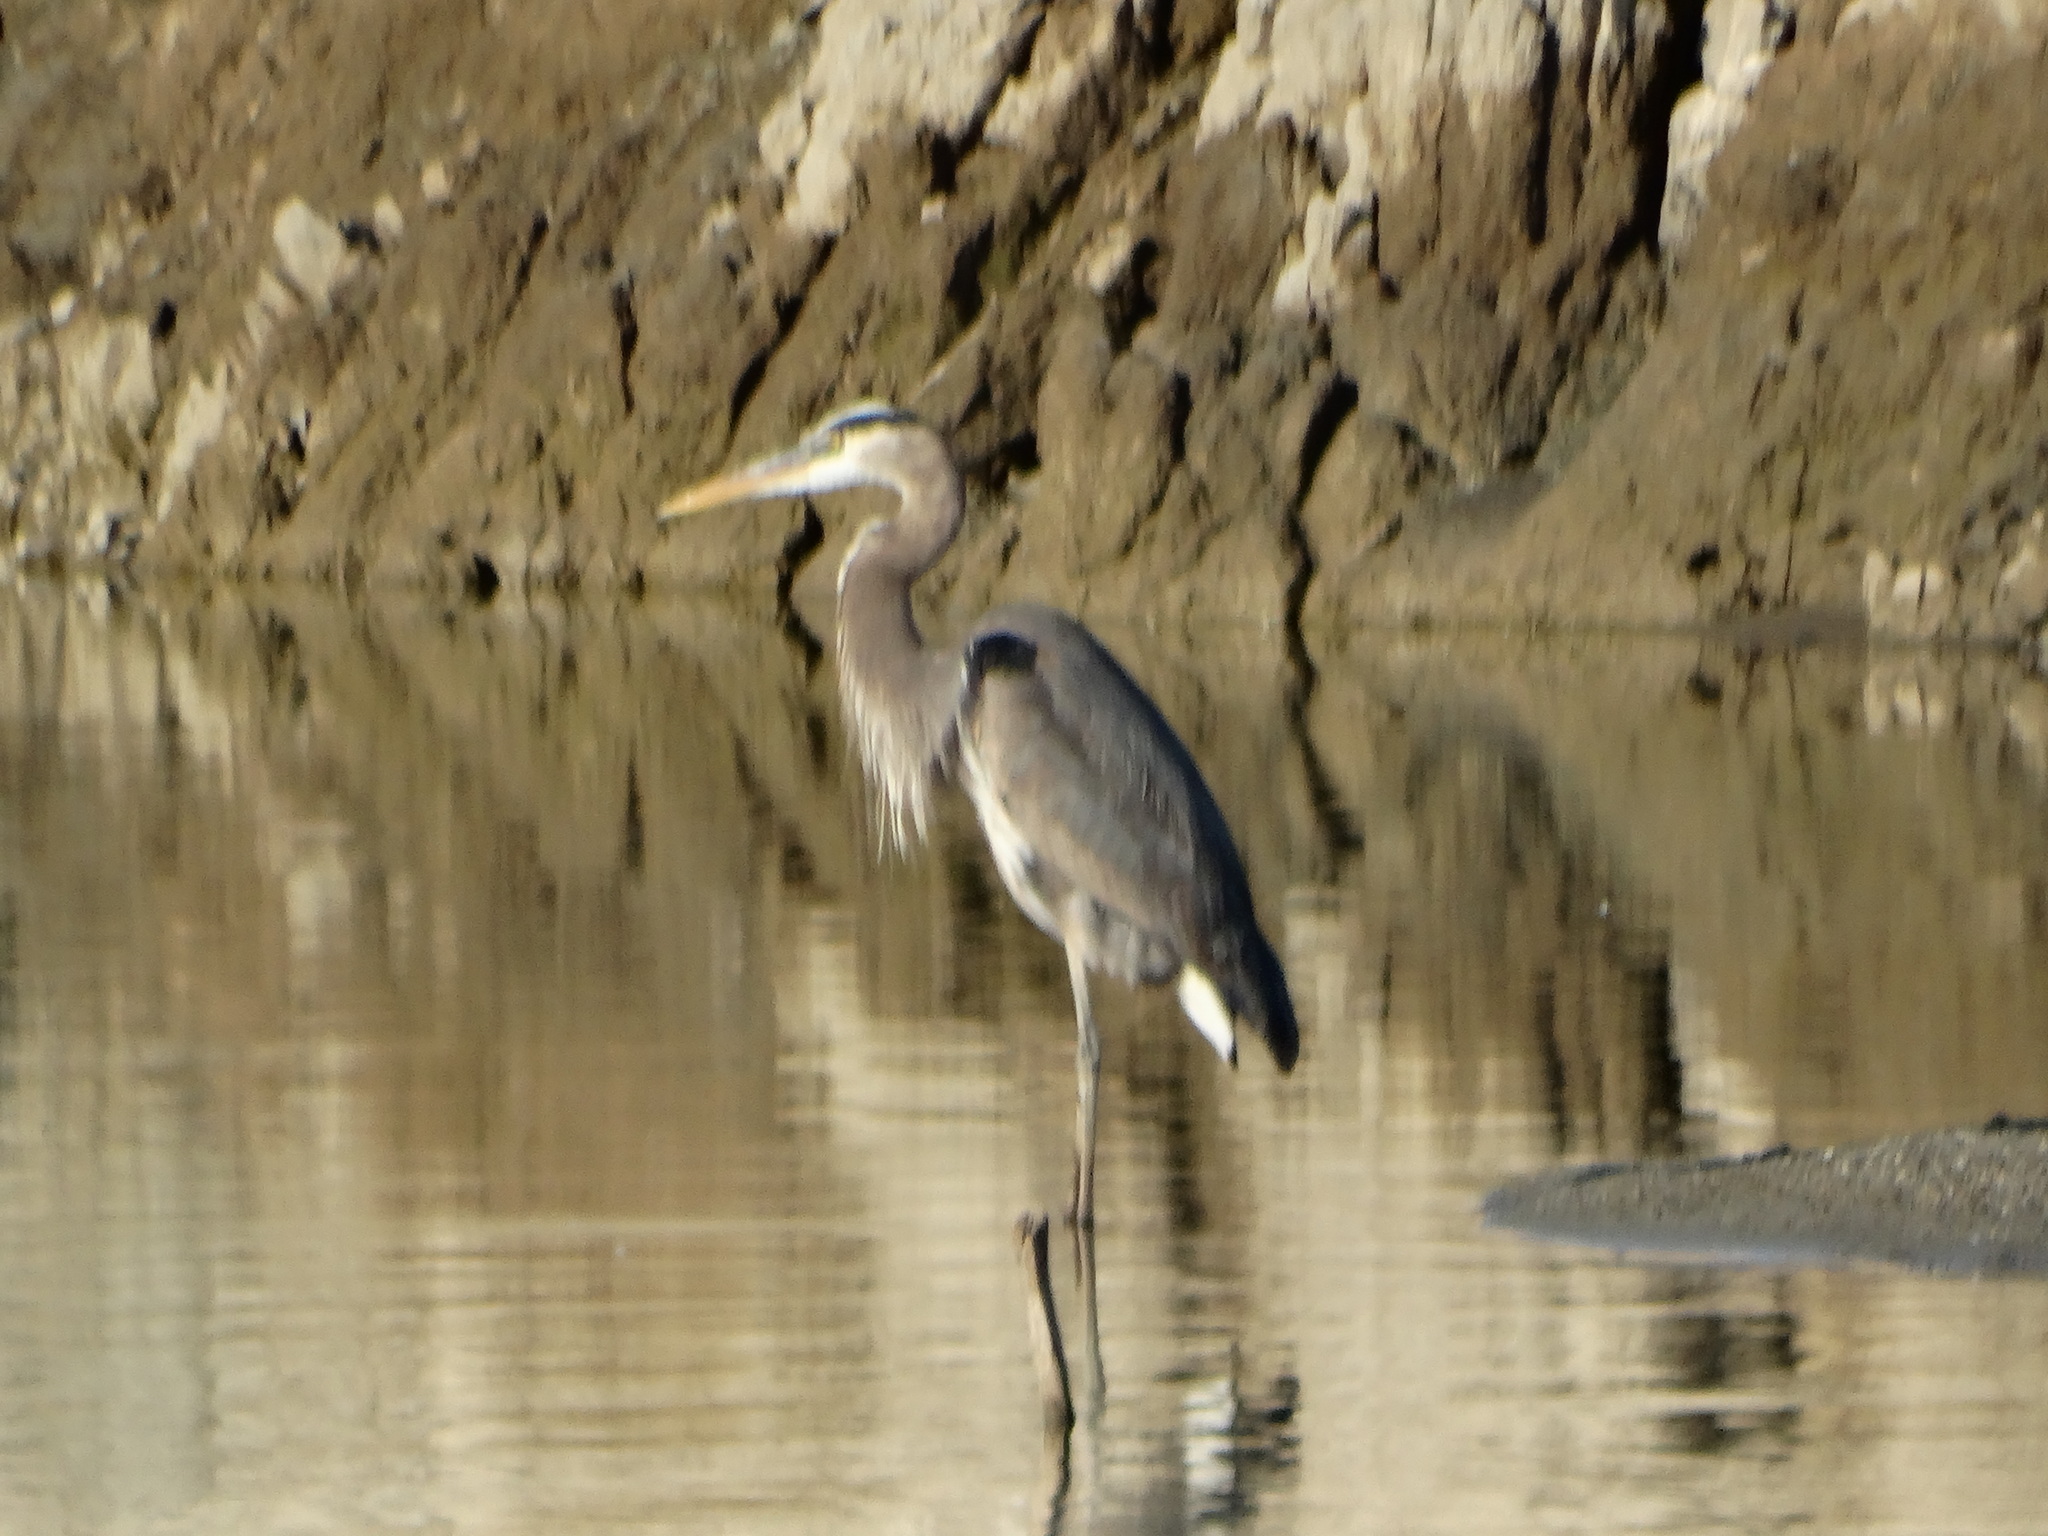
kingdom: Animalia
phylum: Chordata
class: Aves
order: Pelecaniformes
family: Ardeidae
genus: Ardea
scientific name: Ardea herodias
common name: Great blue heron
